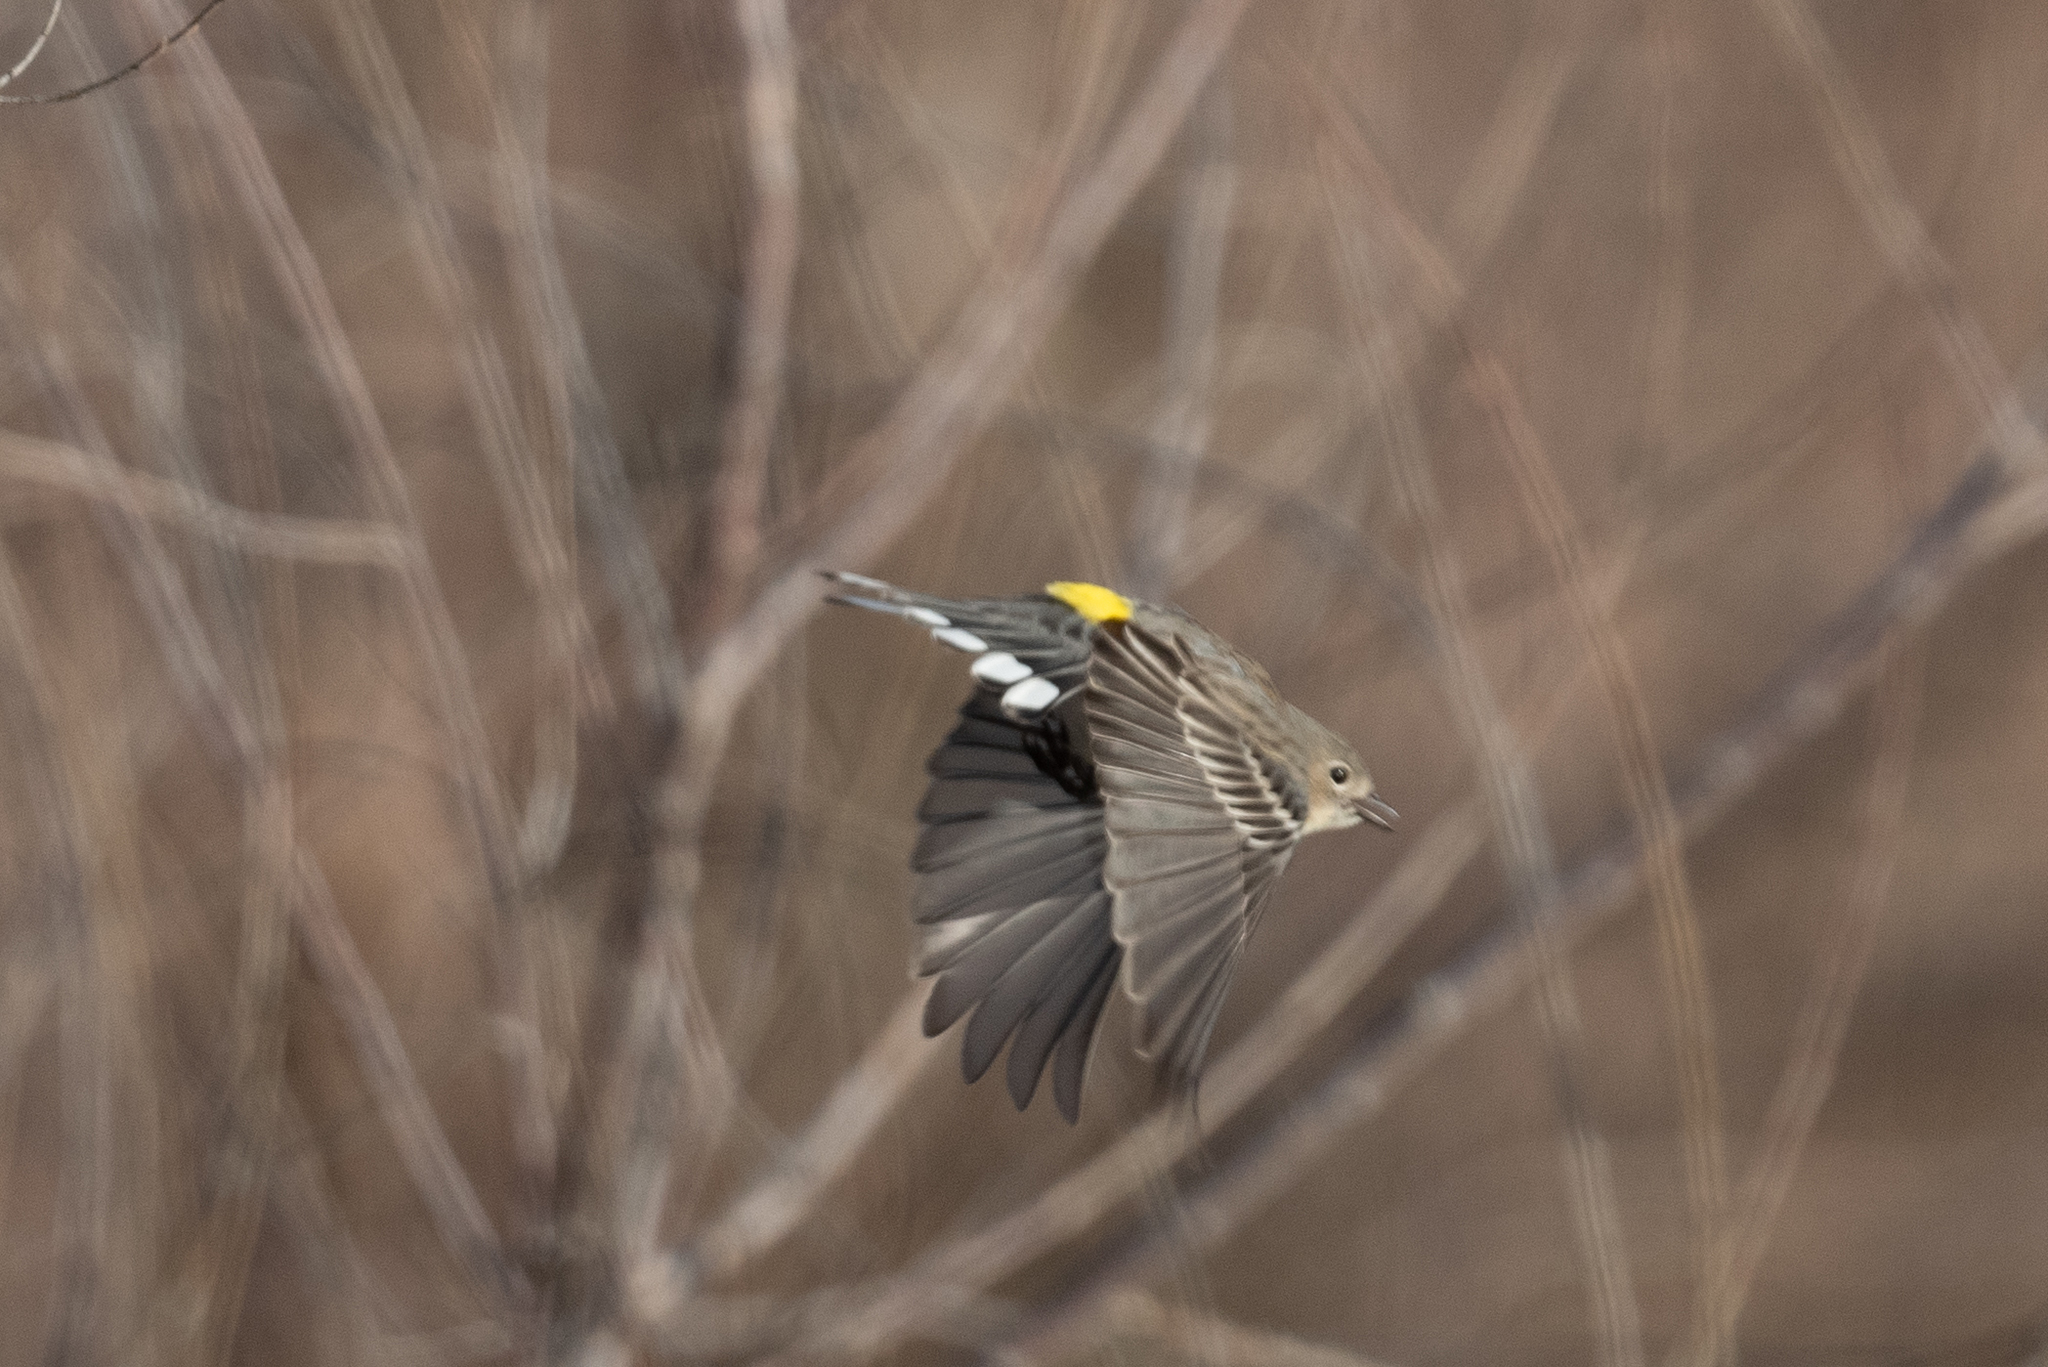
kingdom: Animalia
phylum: Chordata
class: Aves
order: Passeriformes
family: Parulidae
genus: Setophaga
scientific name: Setophaga coronata
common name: Myrtle warbler
